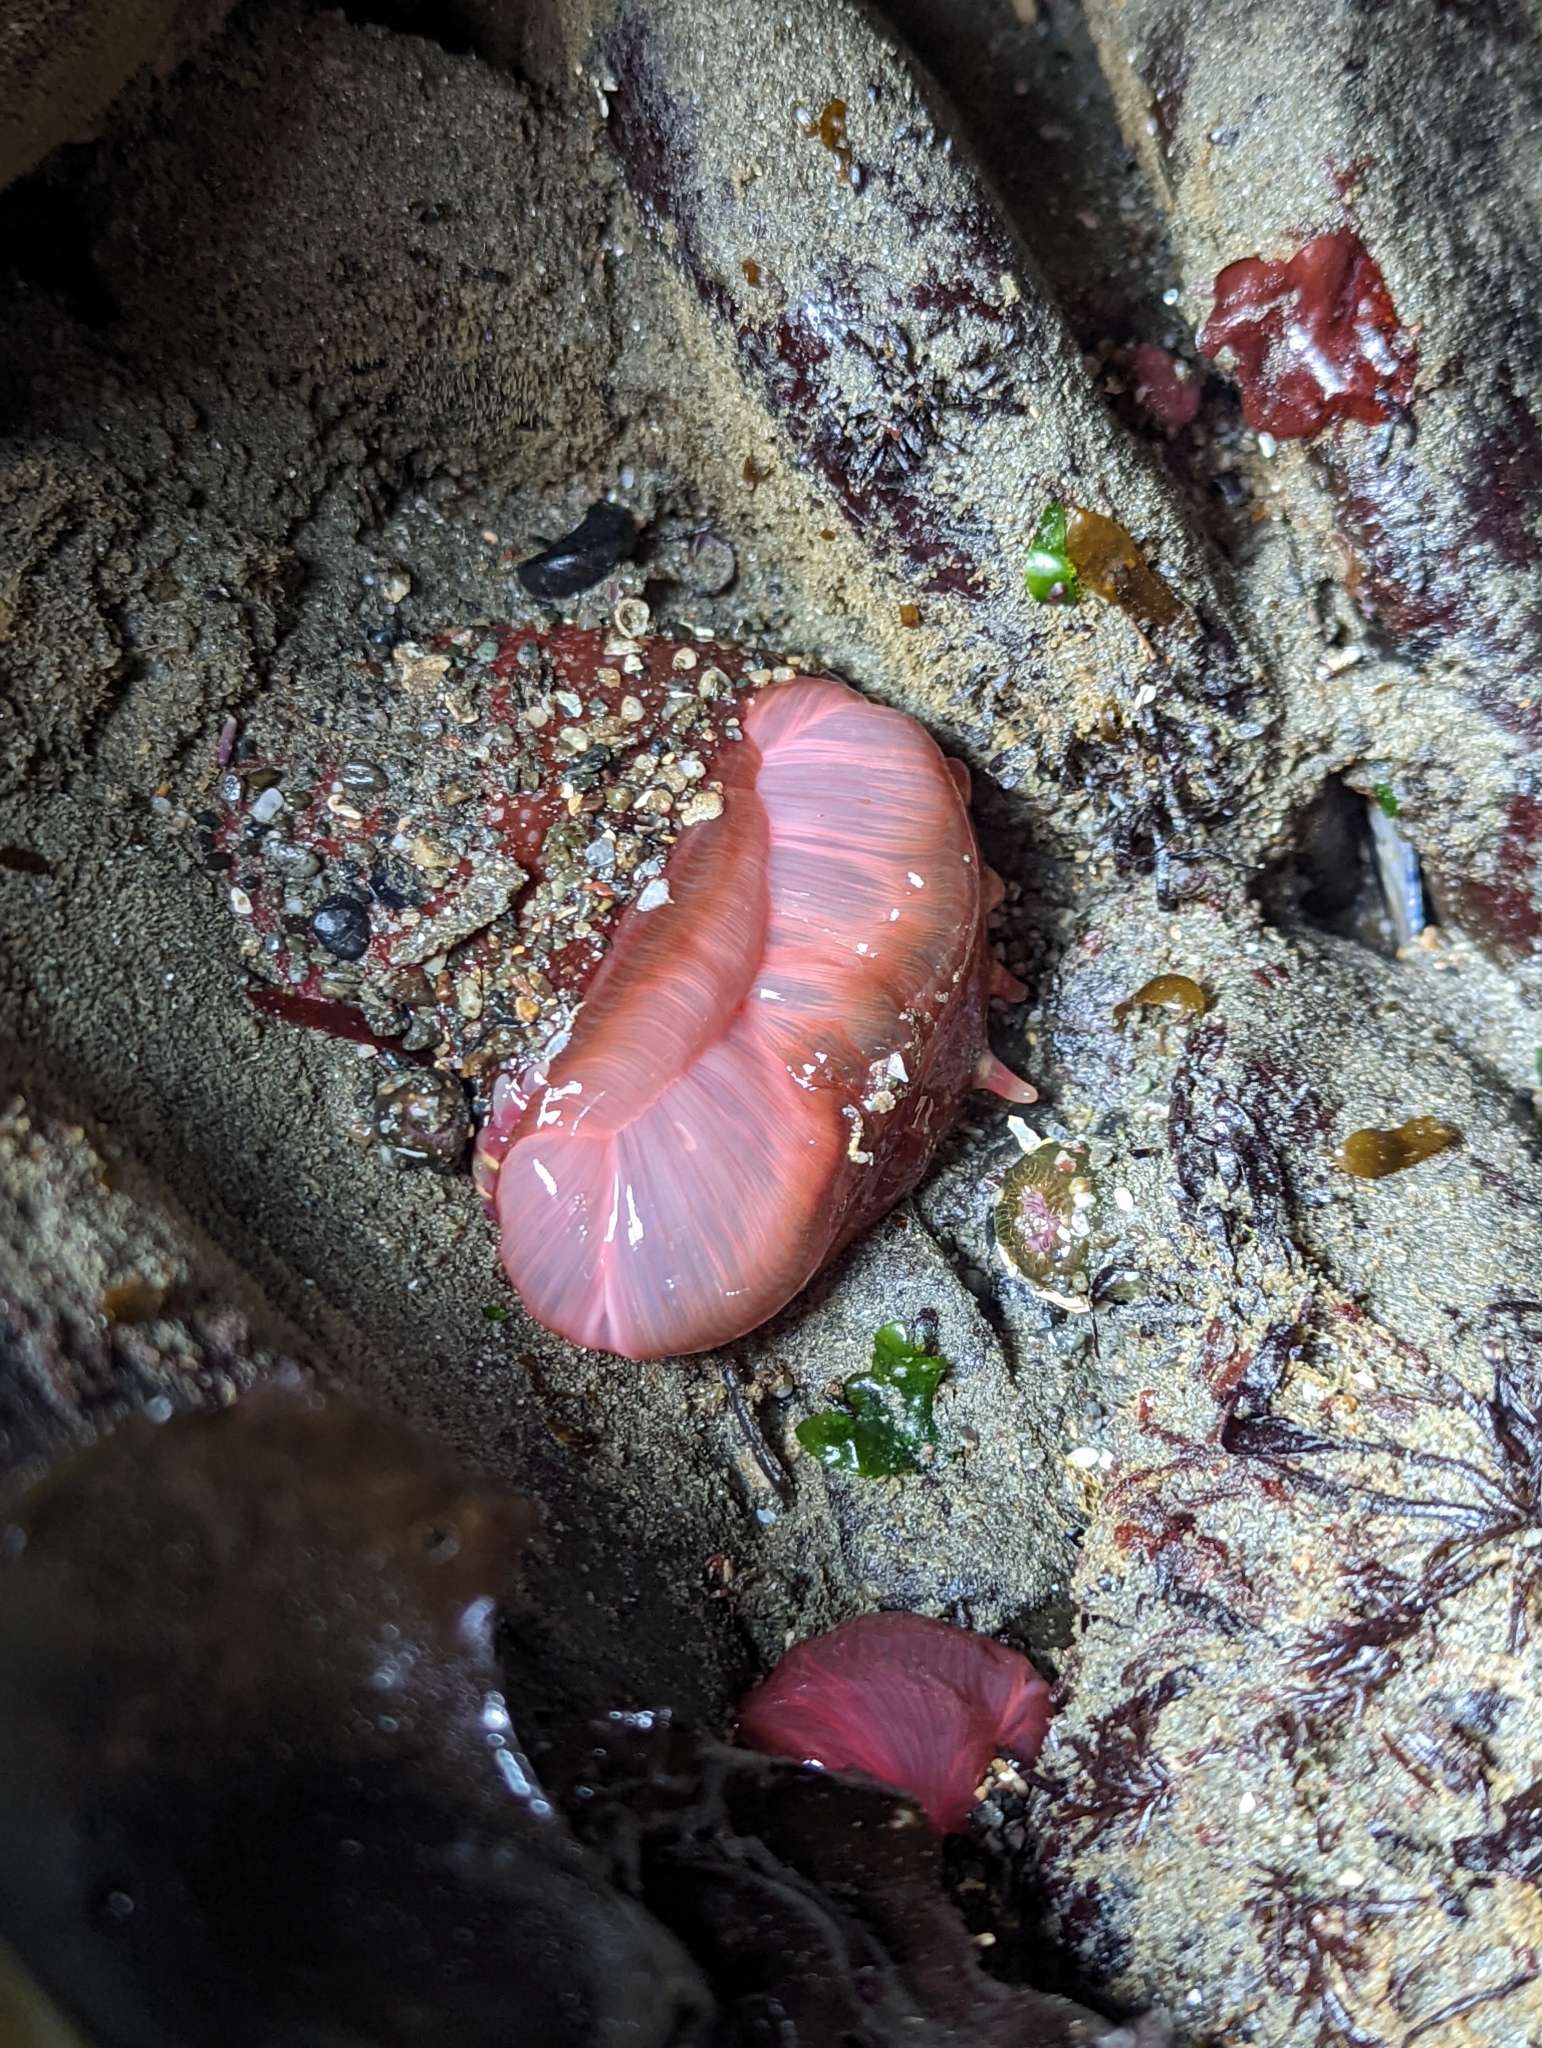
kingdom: Animalia
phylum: Cnidaria
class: Anthozoa
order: Actiniaria
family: Actiniidae
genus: Urticina
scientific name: Urticina clandestina
